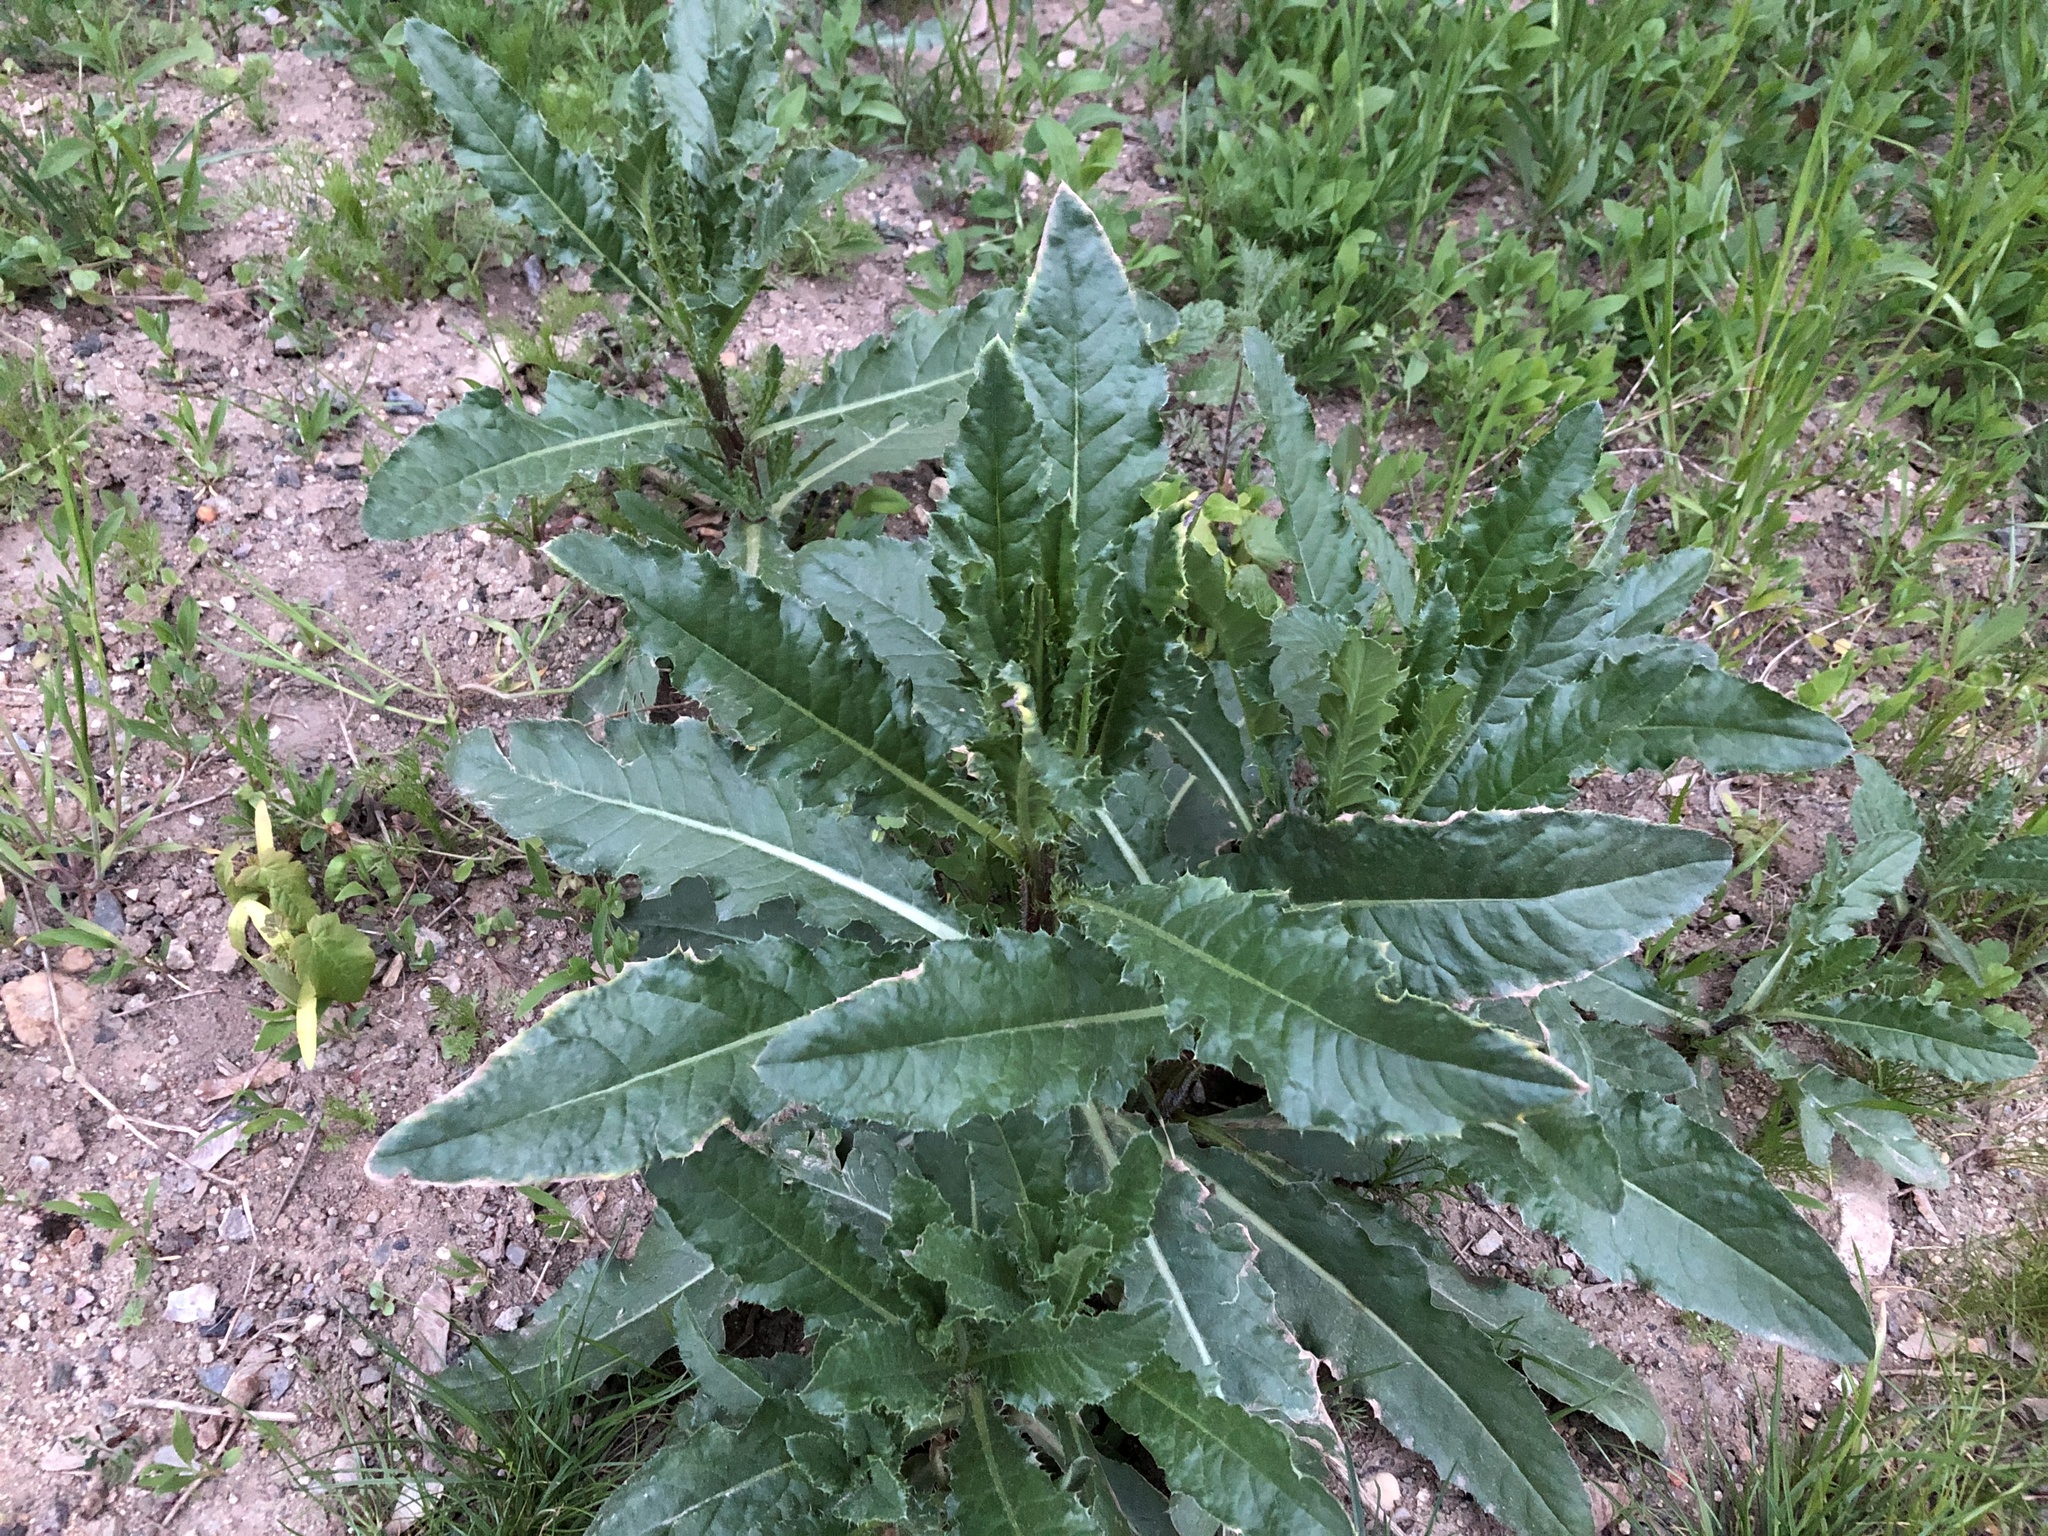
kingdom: Plantae
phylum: Tracheophyta
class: Magnoliopsida
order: Asterales
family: Asteraceae
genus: Cirsium
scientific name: Cirsium arvense
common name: Creeping thistle
